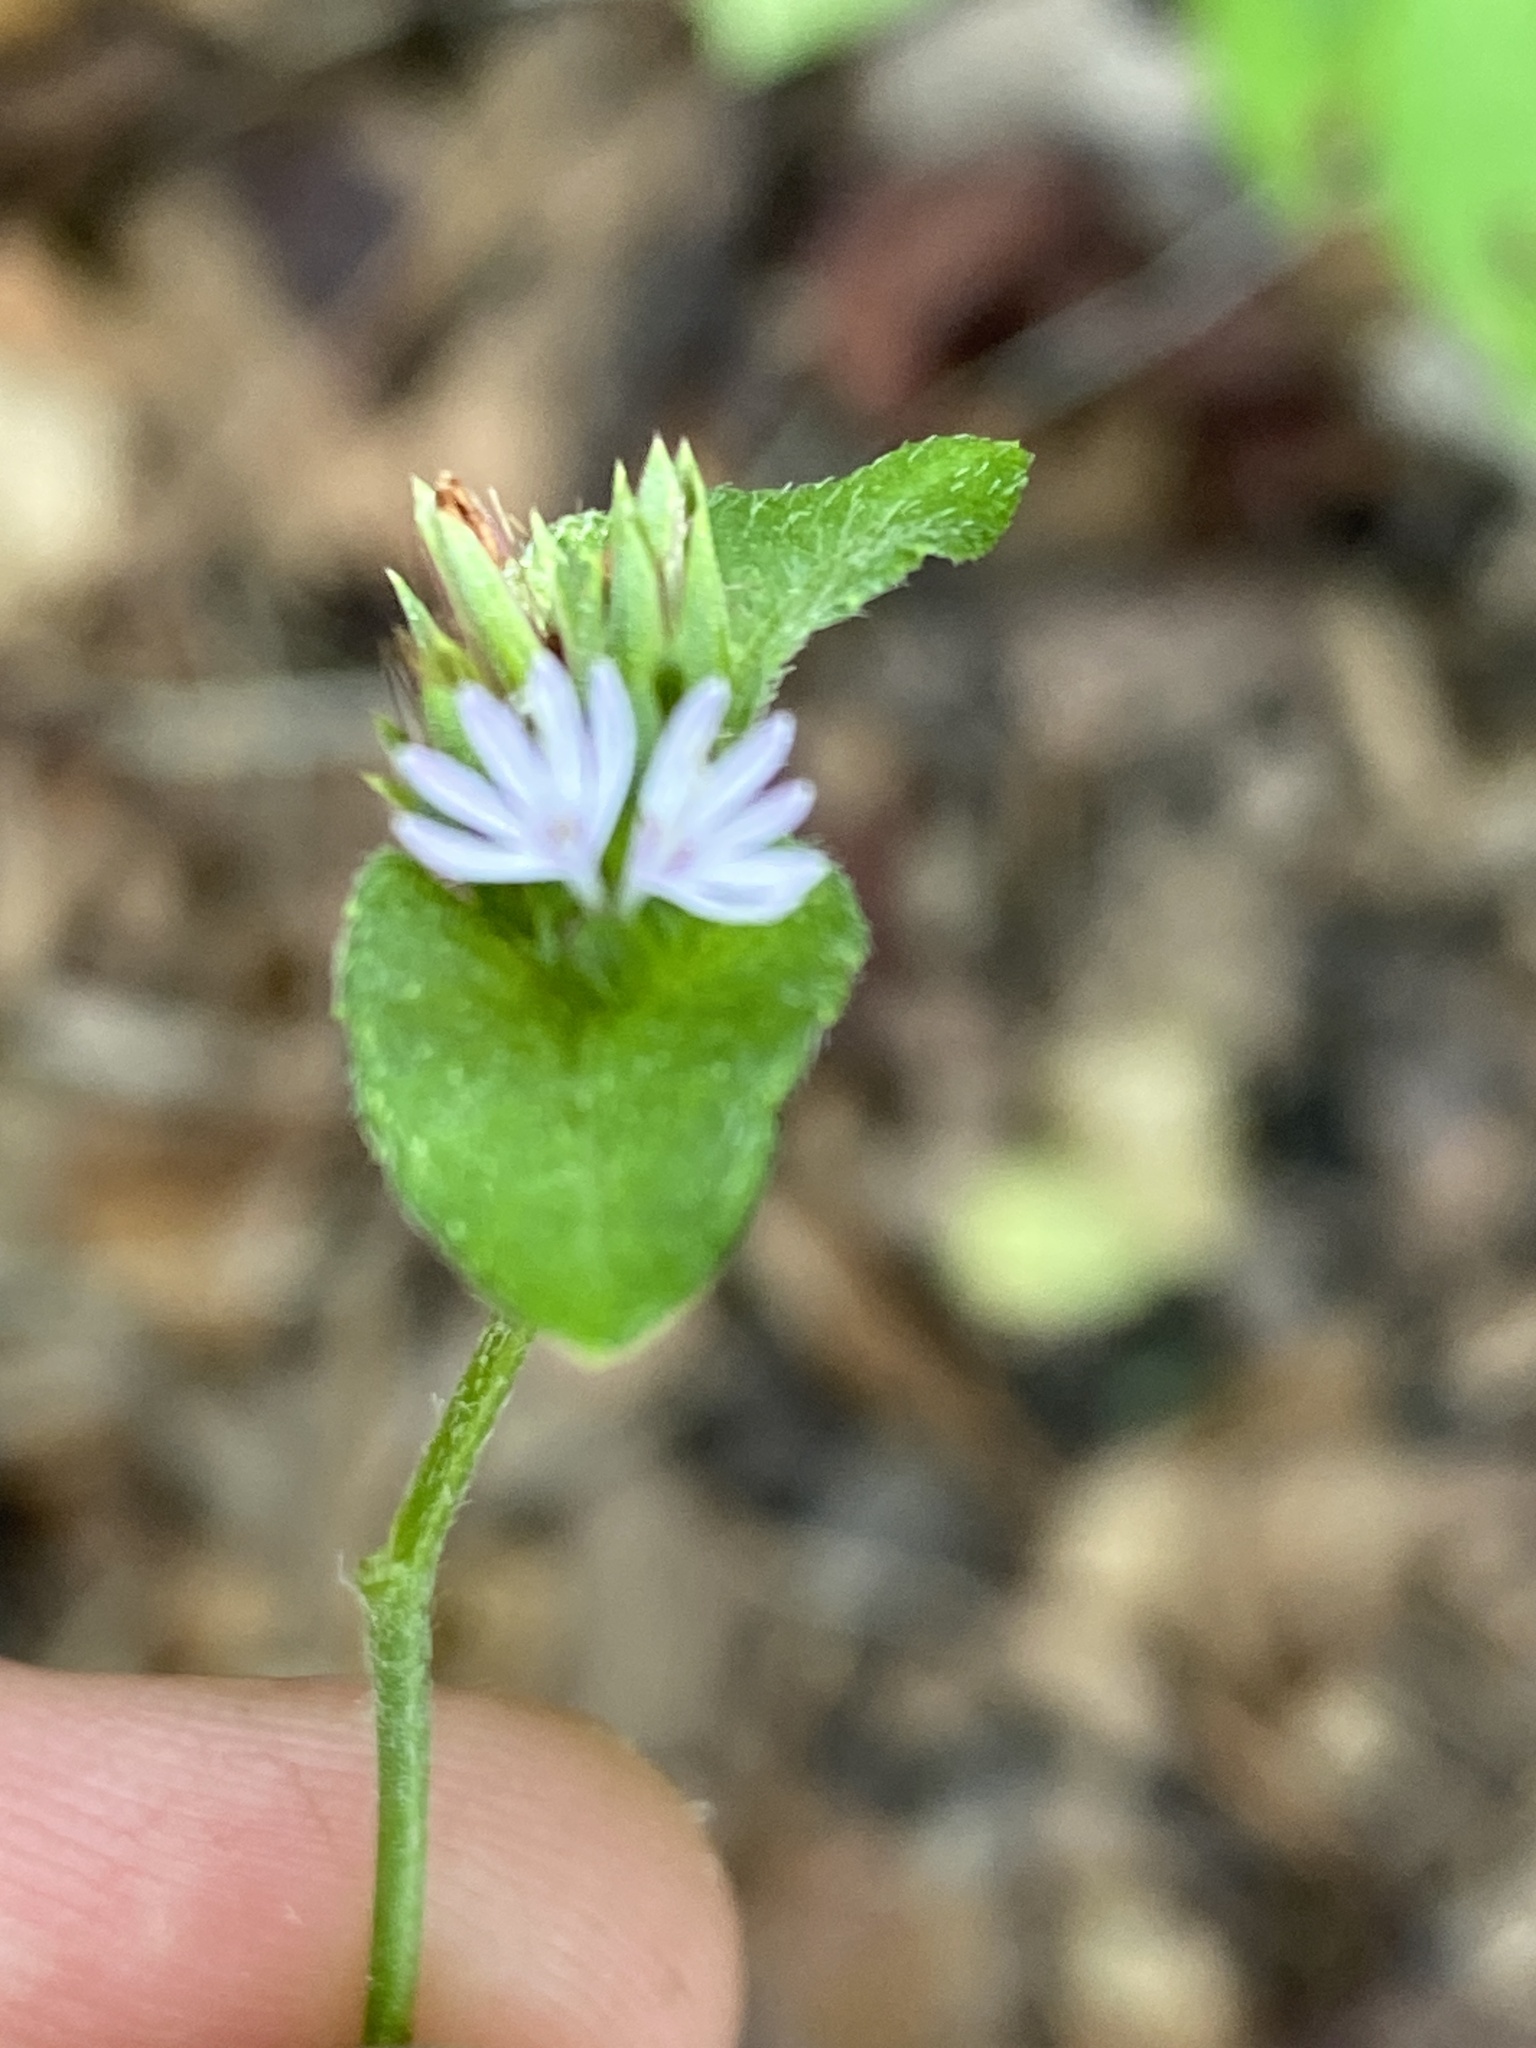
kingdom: Plantae
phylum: Tracheophyta
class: Magnoliopsida
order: Asterales
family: Asteraceae
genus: Elephantopus
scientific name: Elephantopus carolinianus
